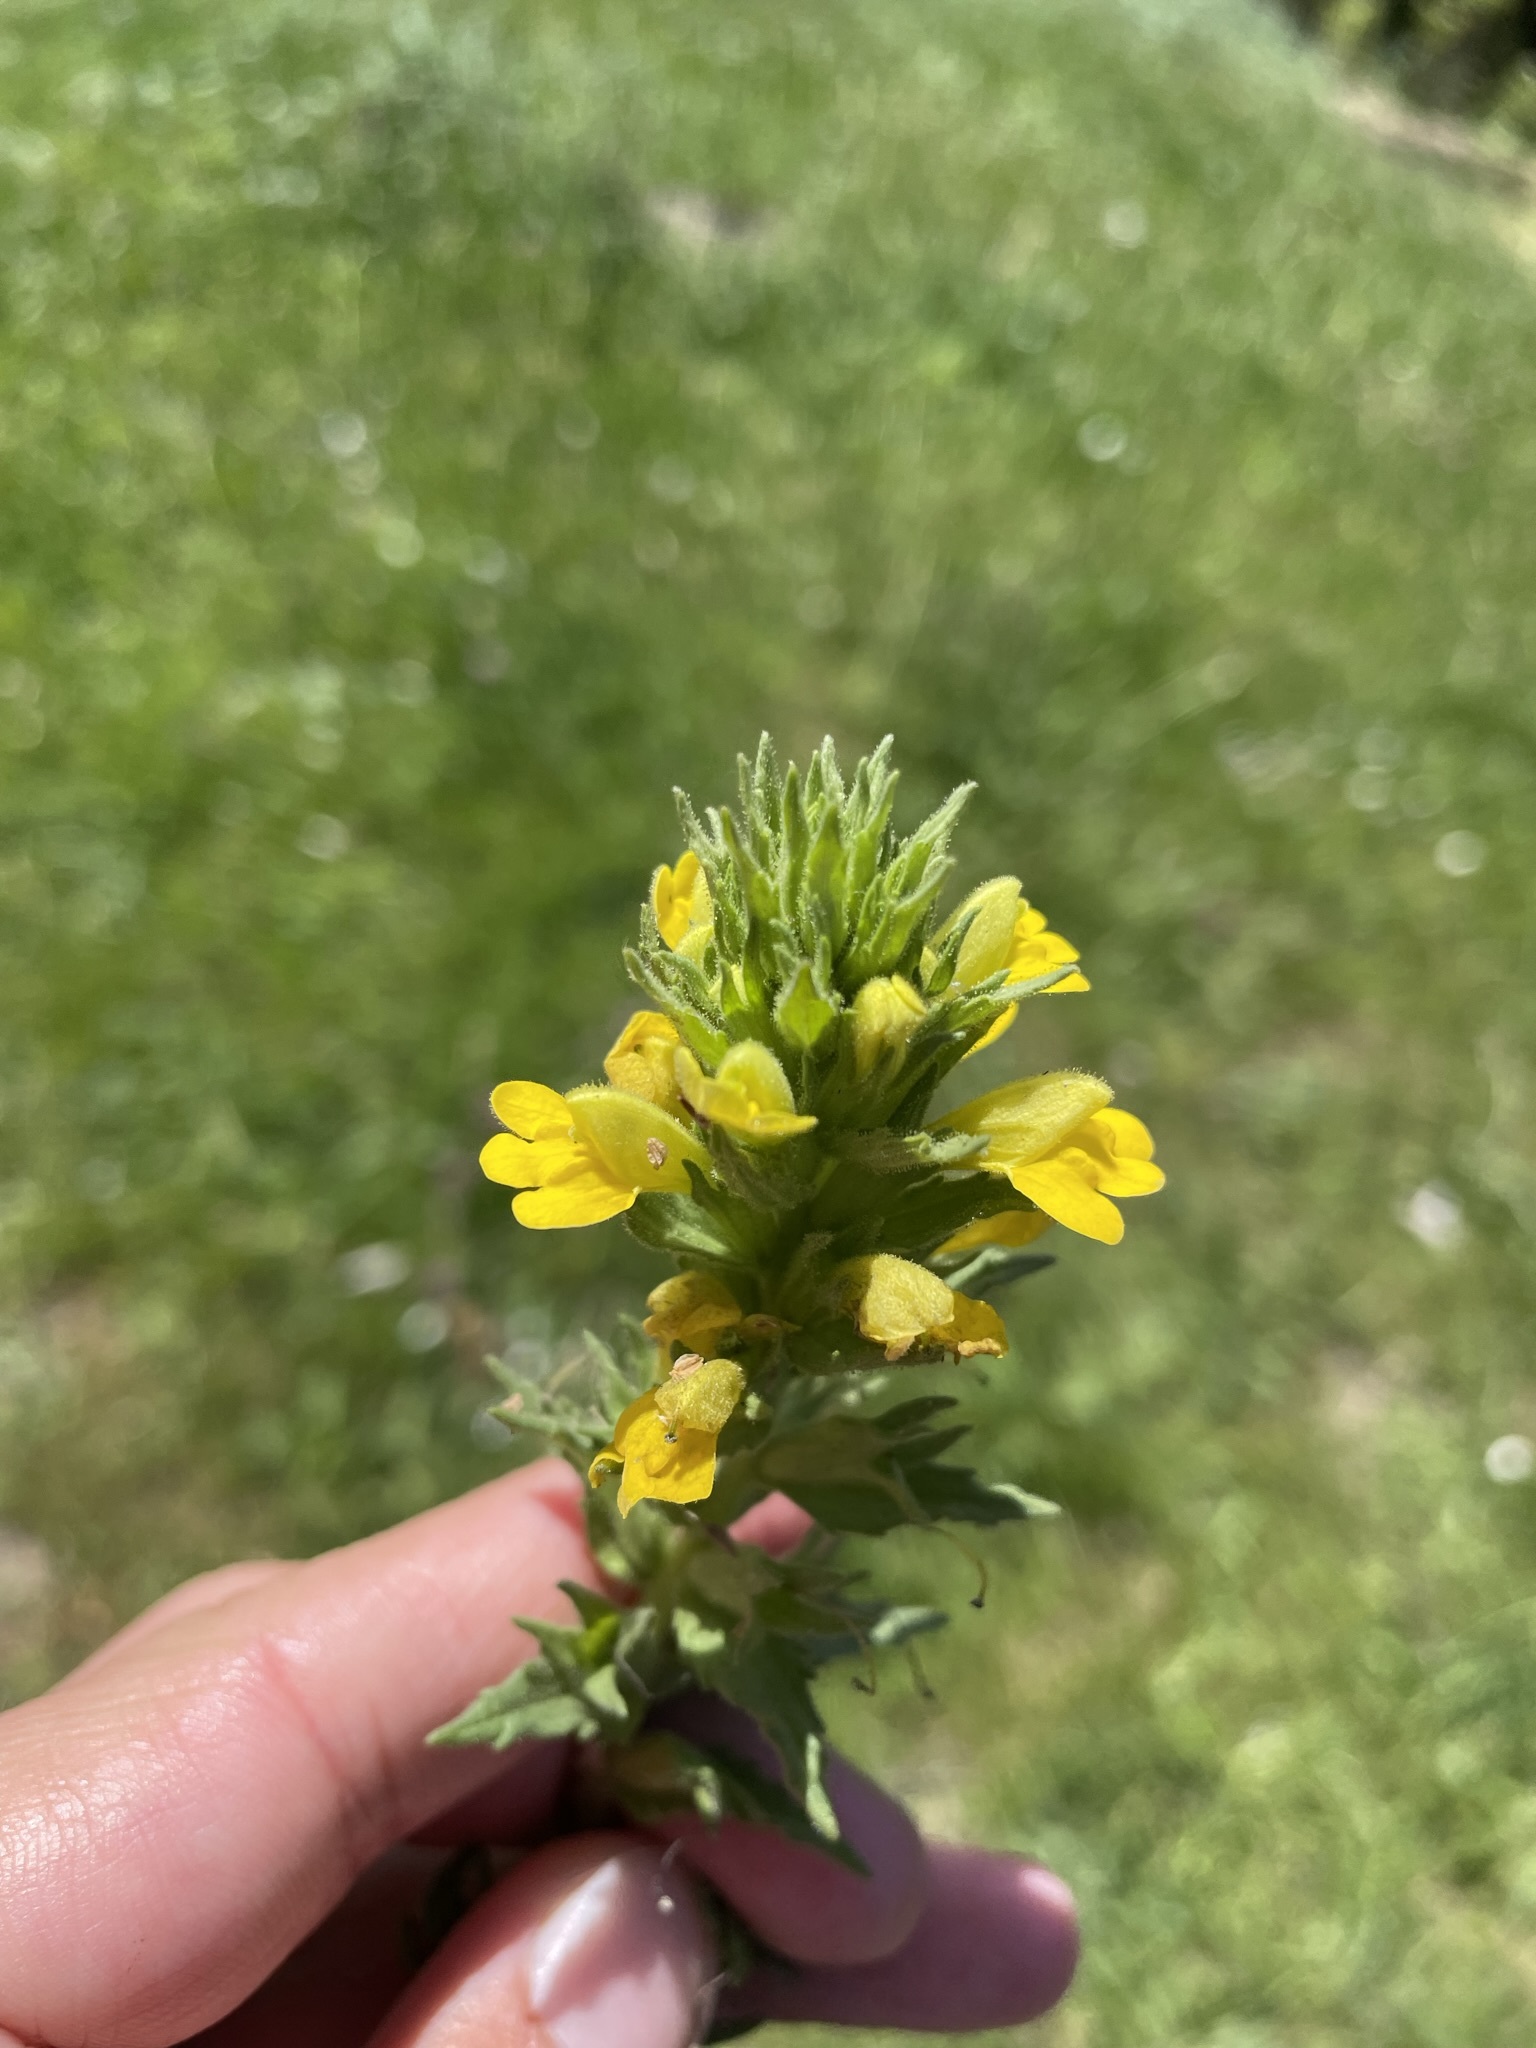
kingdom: Plantae
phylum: Tracheophyta
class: Magnoliopsida
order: Lamiales
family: Orobanchaceae
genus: Bellardia
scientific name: Bellardia viscosa
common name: Sticky parentucellia
